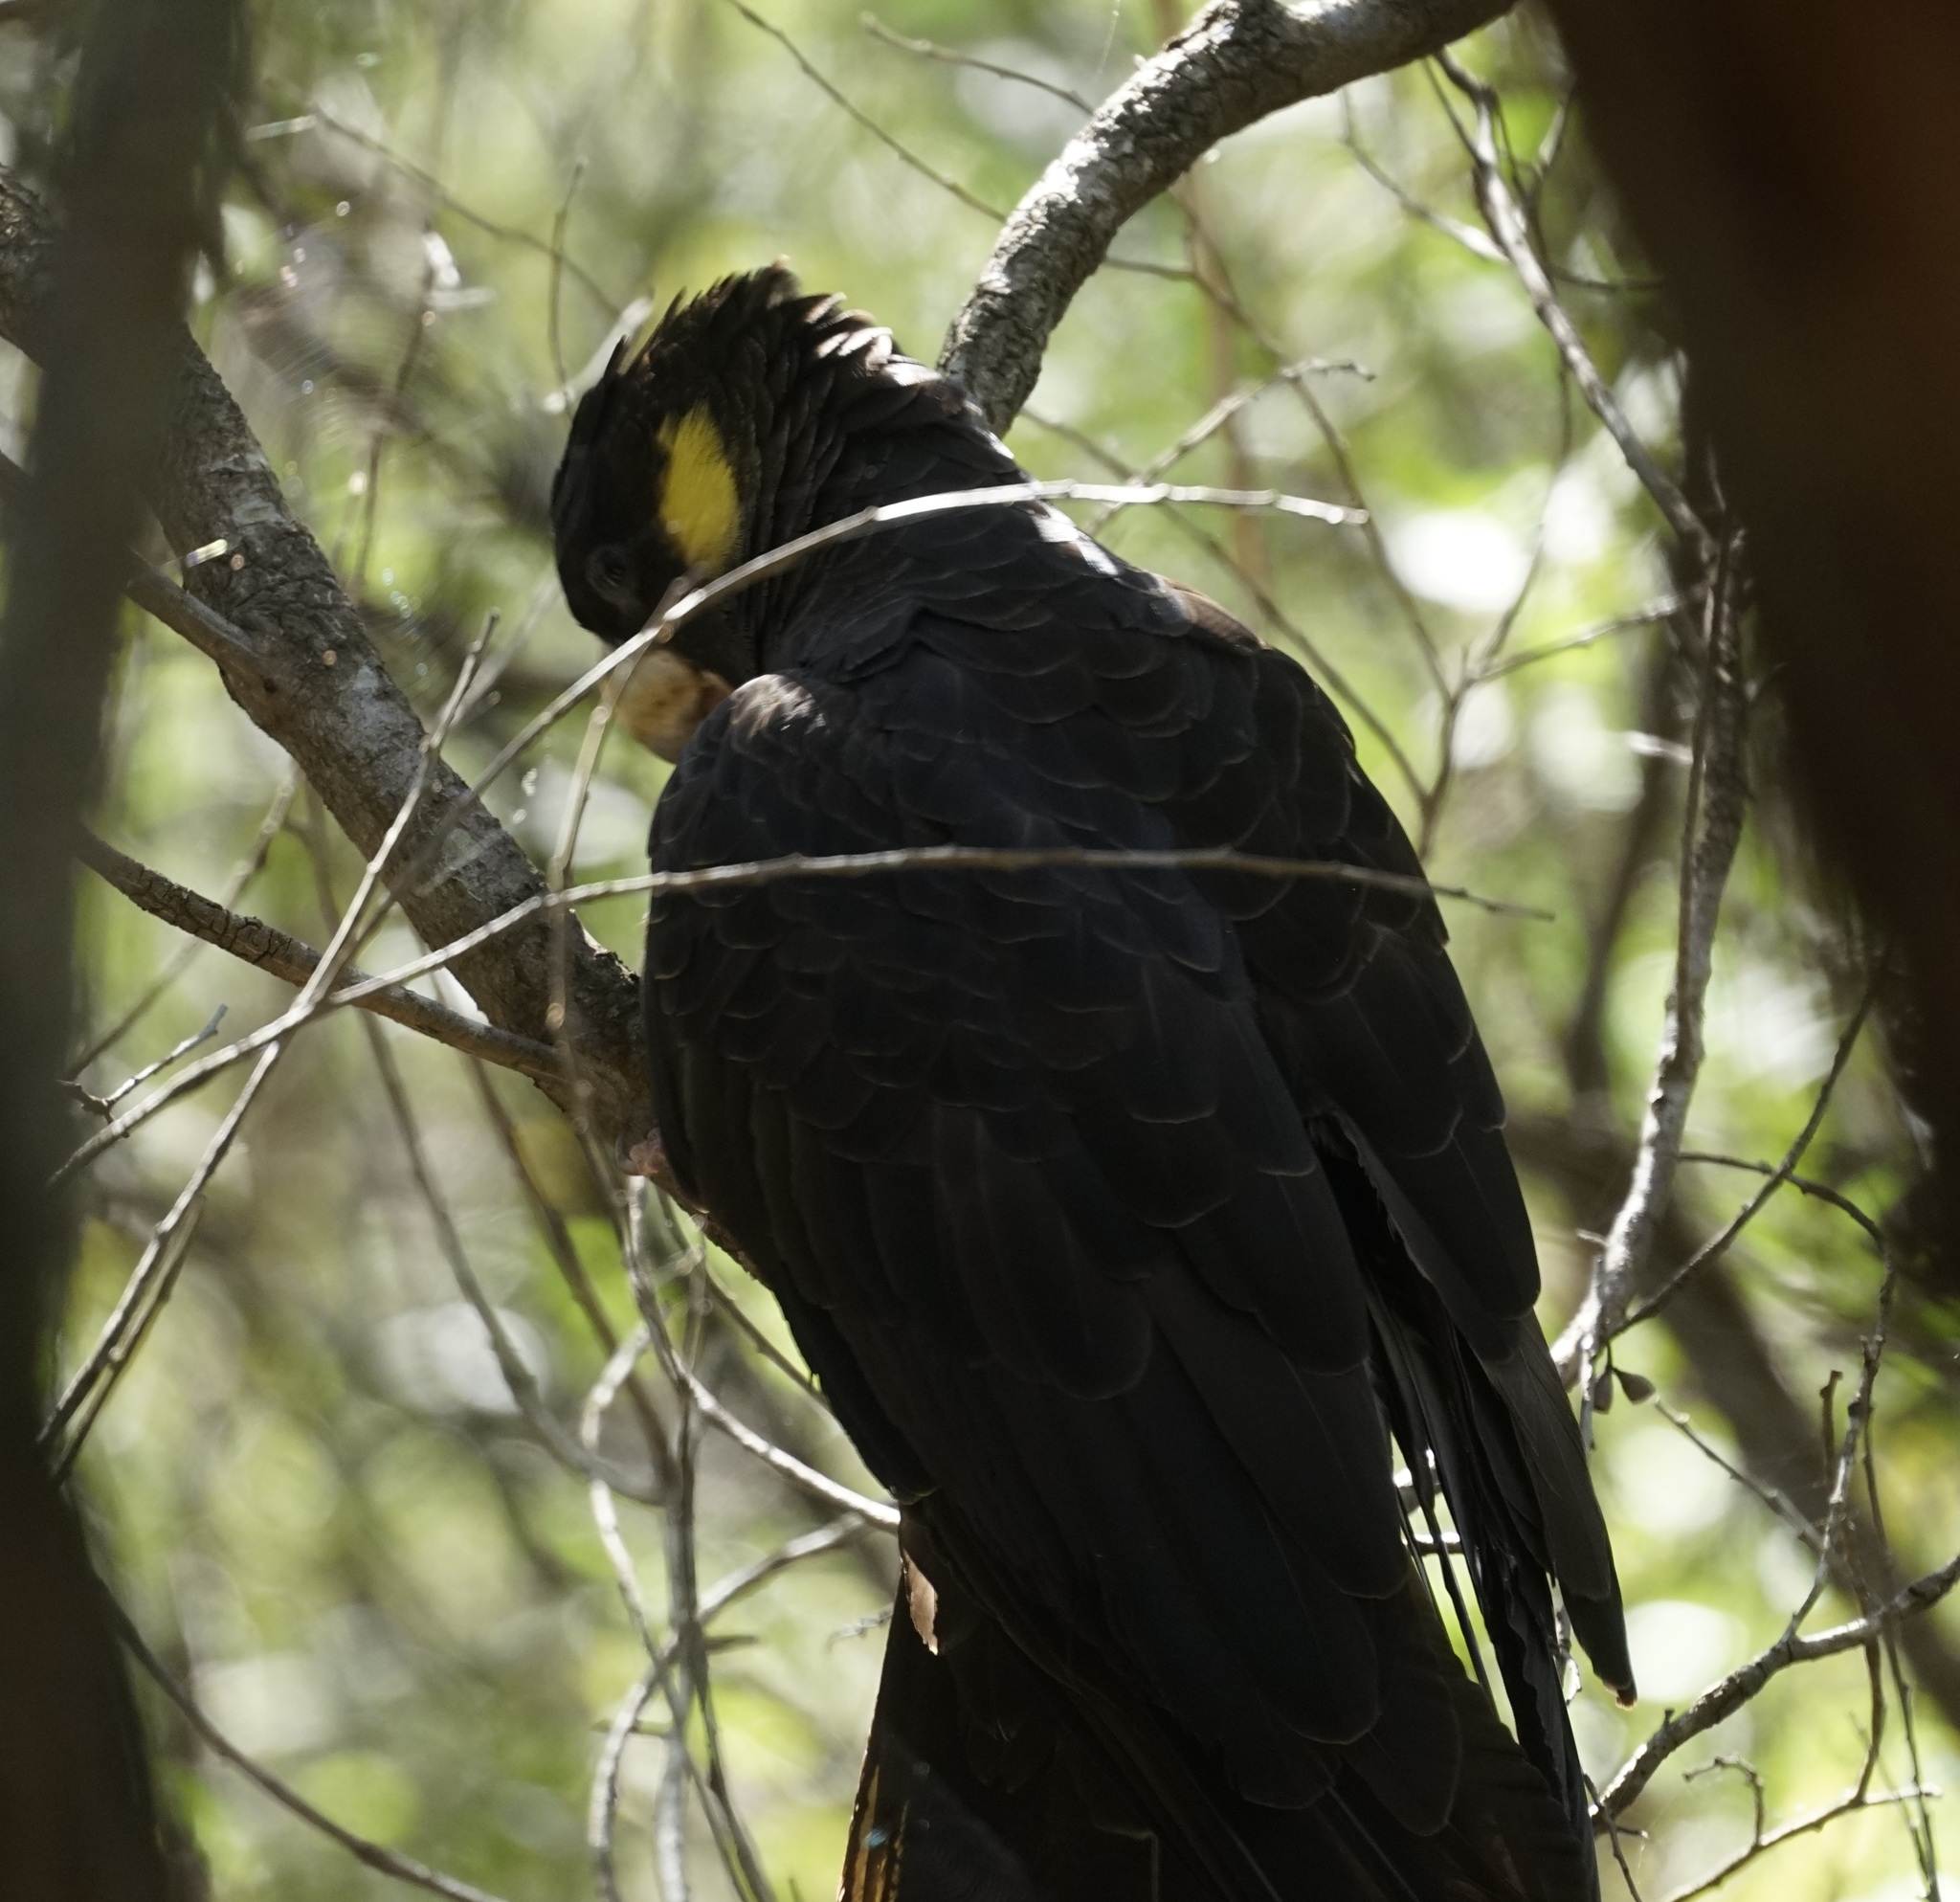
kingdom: Animalia
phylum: Chordata
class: Aves
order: Psittaciformes
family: Cacatuidae
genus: Zanda
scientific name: Zanda funerea
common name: Yellow-tailed black-cockatoo
